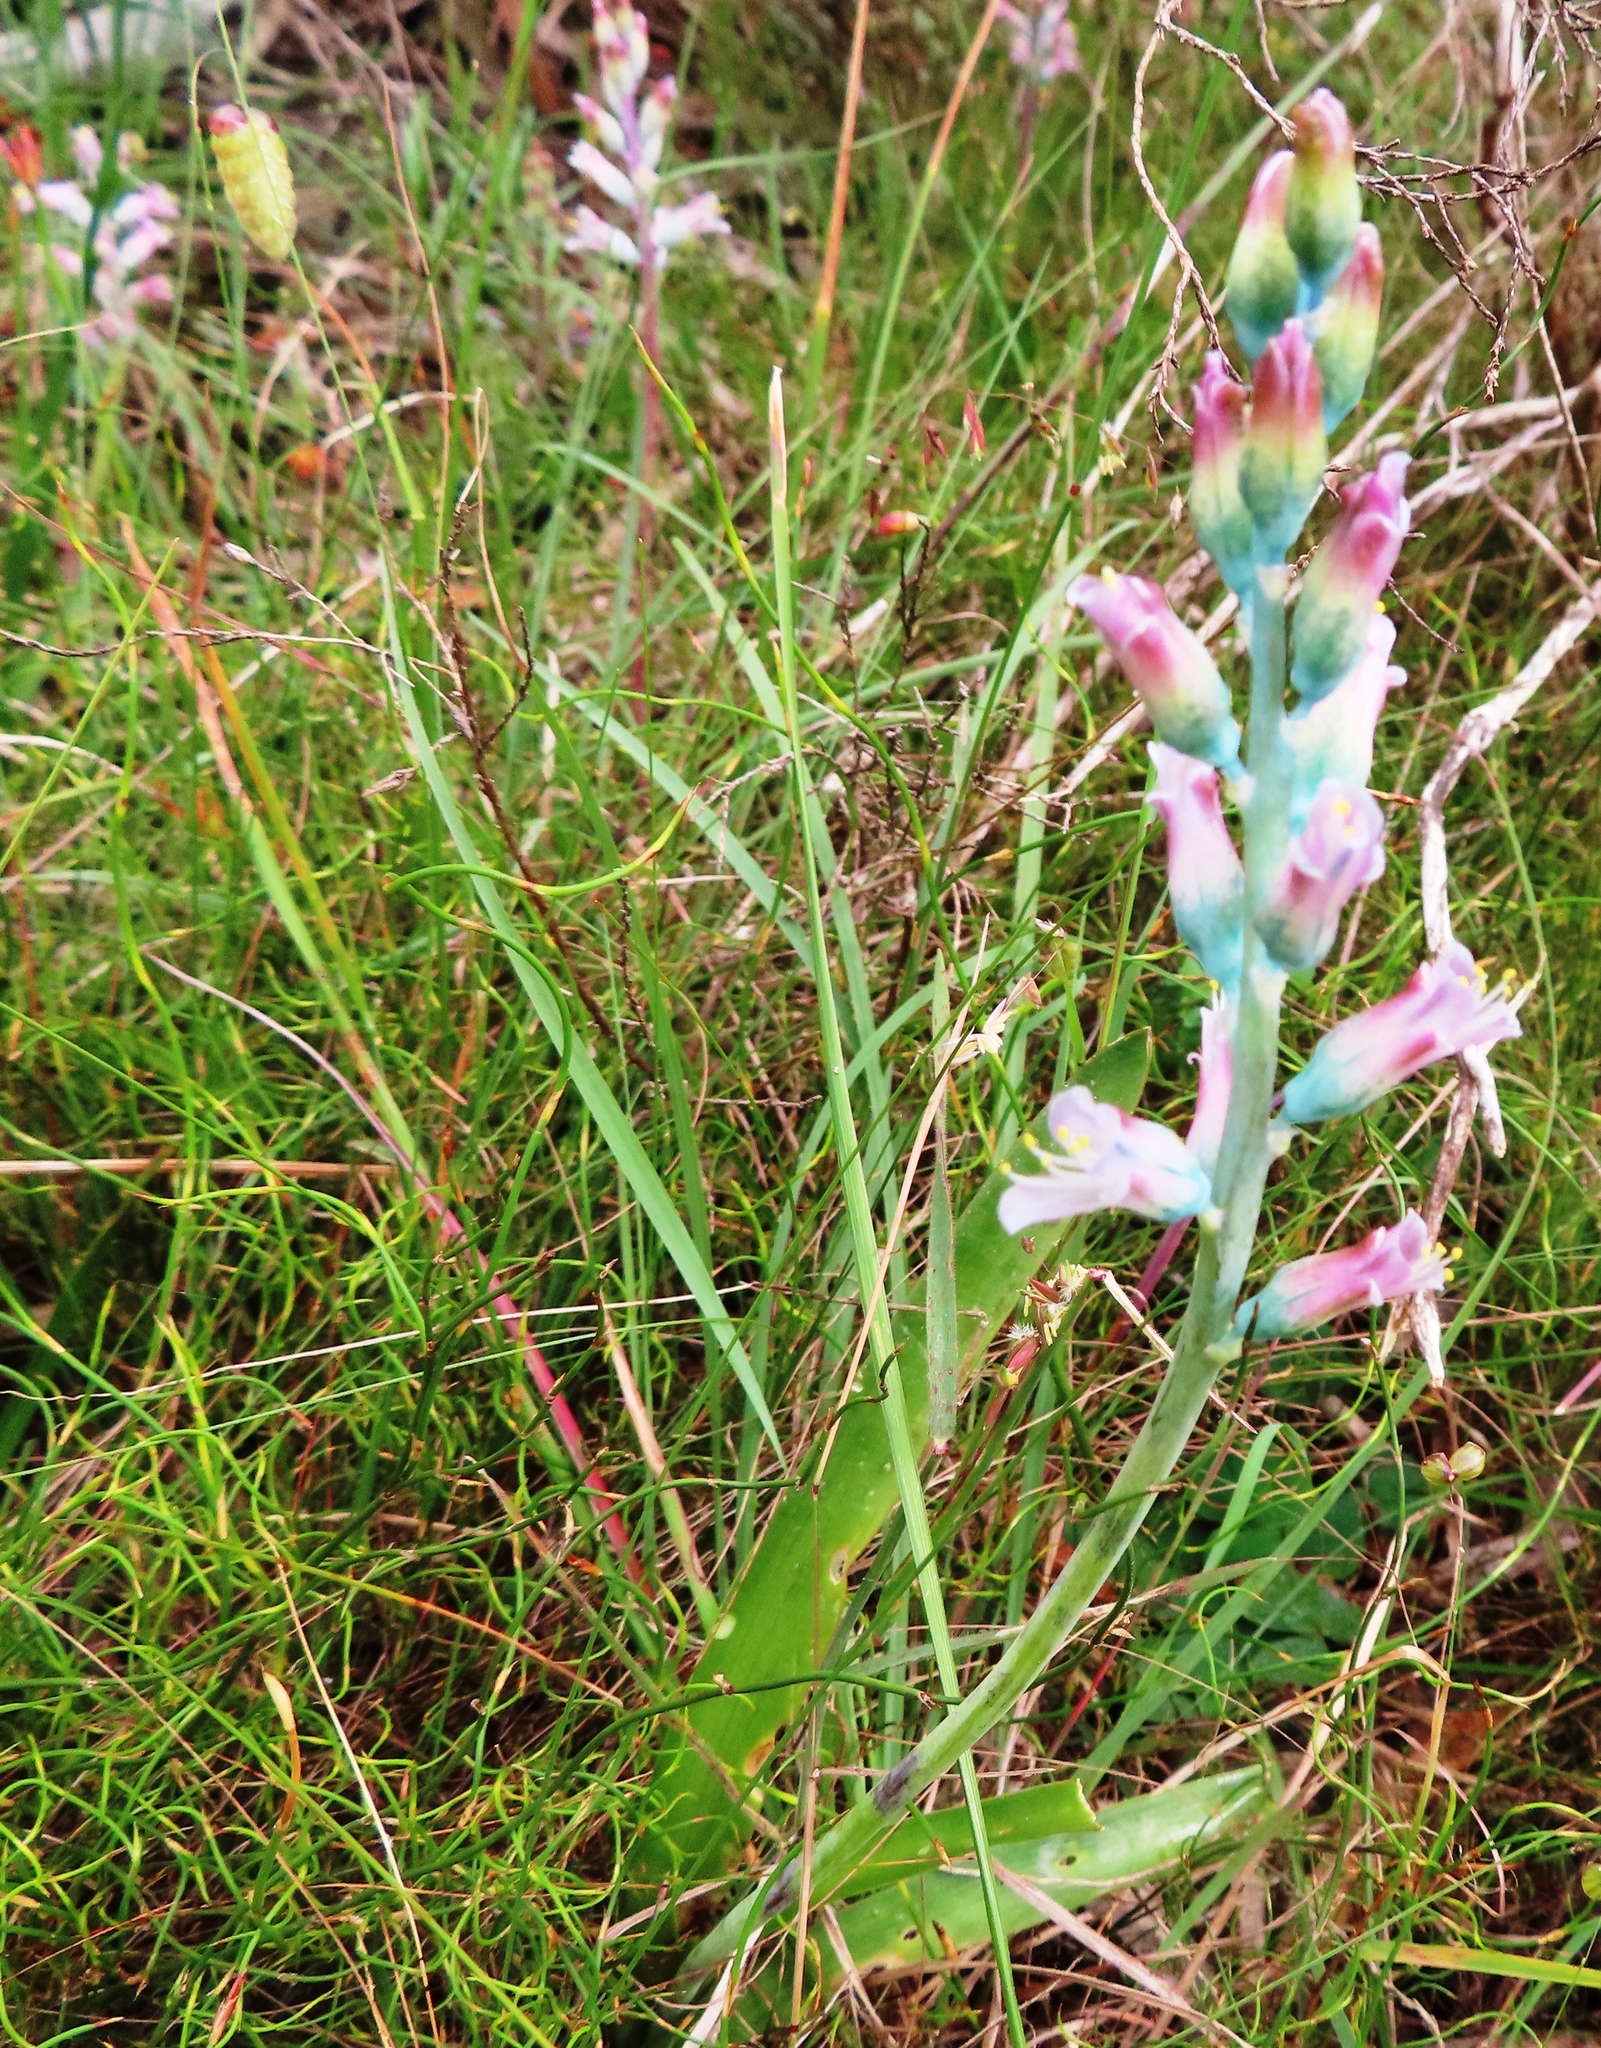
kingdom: Plantae
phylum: Tracheophyta
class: Liliopsida
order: Asparagales
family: Asparagaceae
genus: Lachenalia
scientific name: Lachenalia salteri
